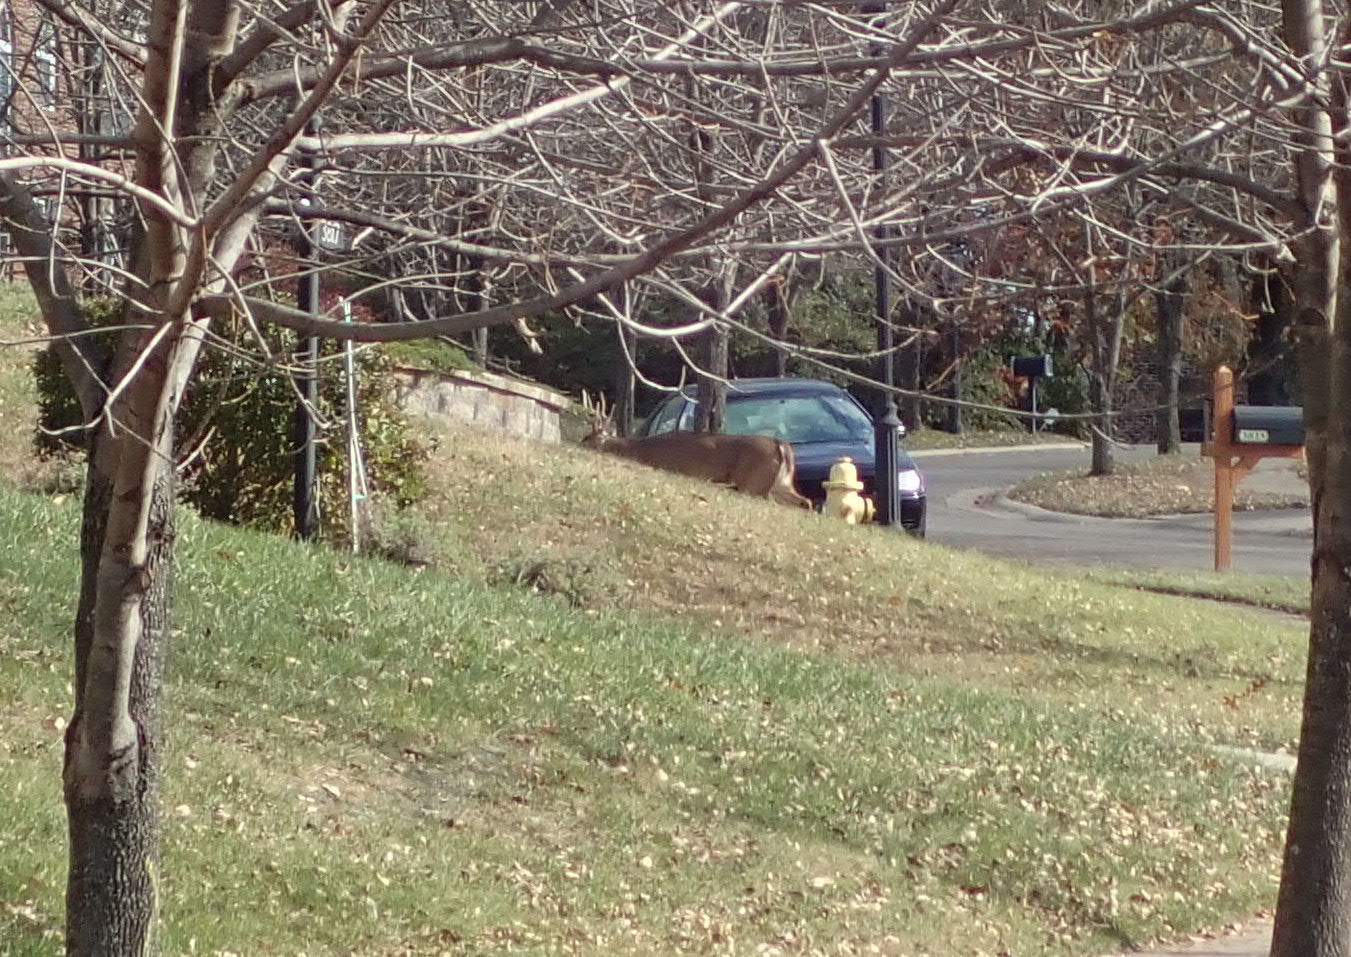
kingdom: Animalia
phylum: Chordata
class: Mammalia
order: Artiodactyla
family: Cervidae
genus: Odocoileus
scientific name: Odocoileus virginianus
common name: White-tailed deer
